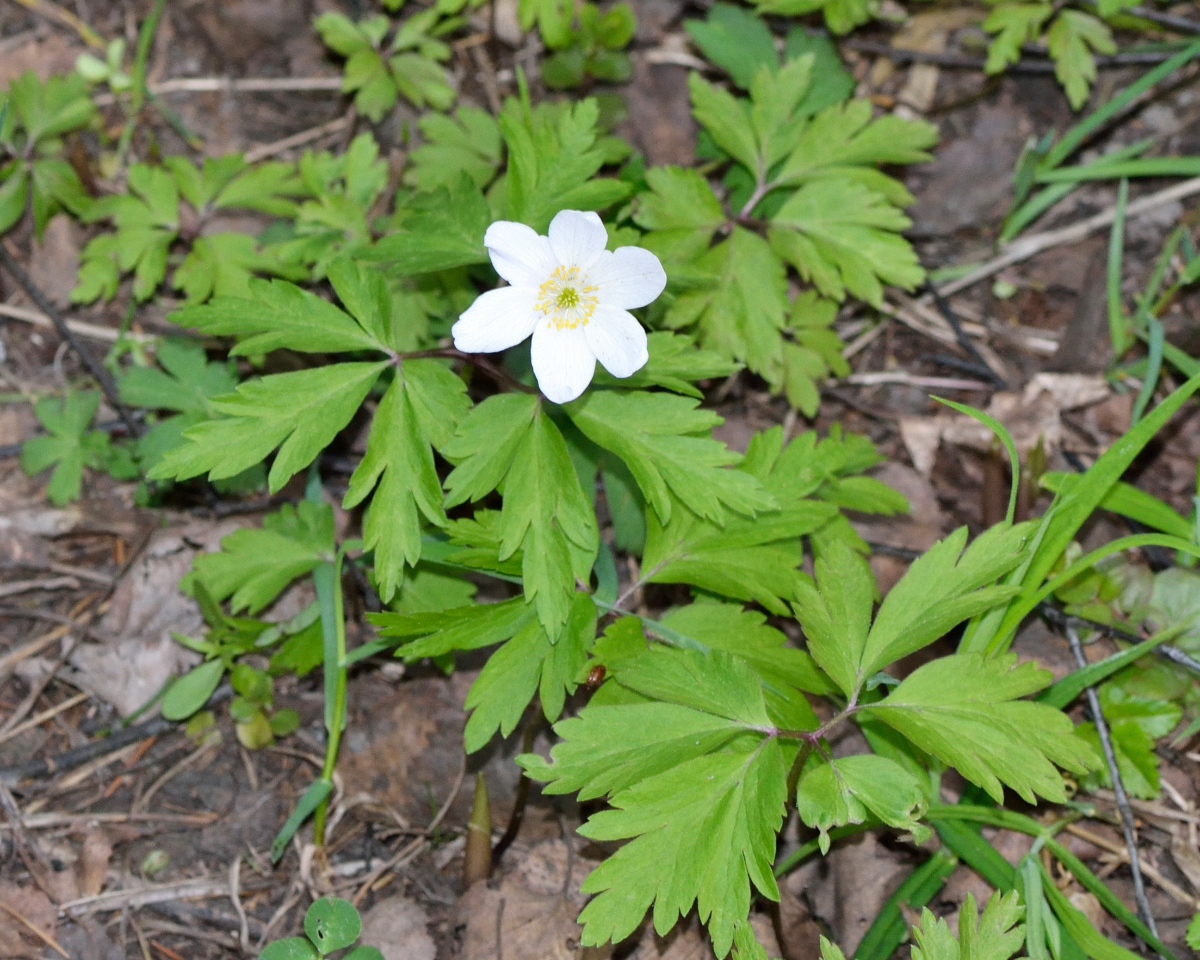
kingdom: Plantae
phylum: Tracheophyta
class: Magnoliopsida
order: Ranunculales
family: Ranunculaceae
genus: Anemone
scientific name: Anemone nemorosa
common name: Wood anemone
